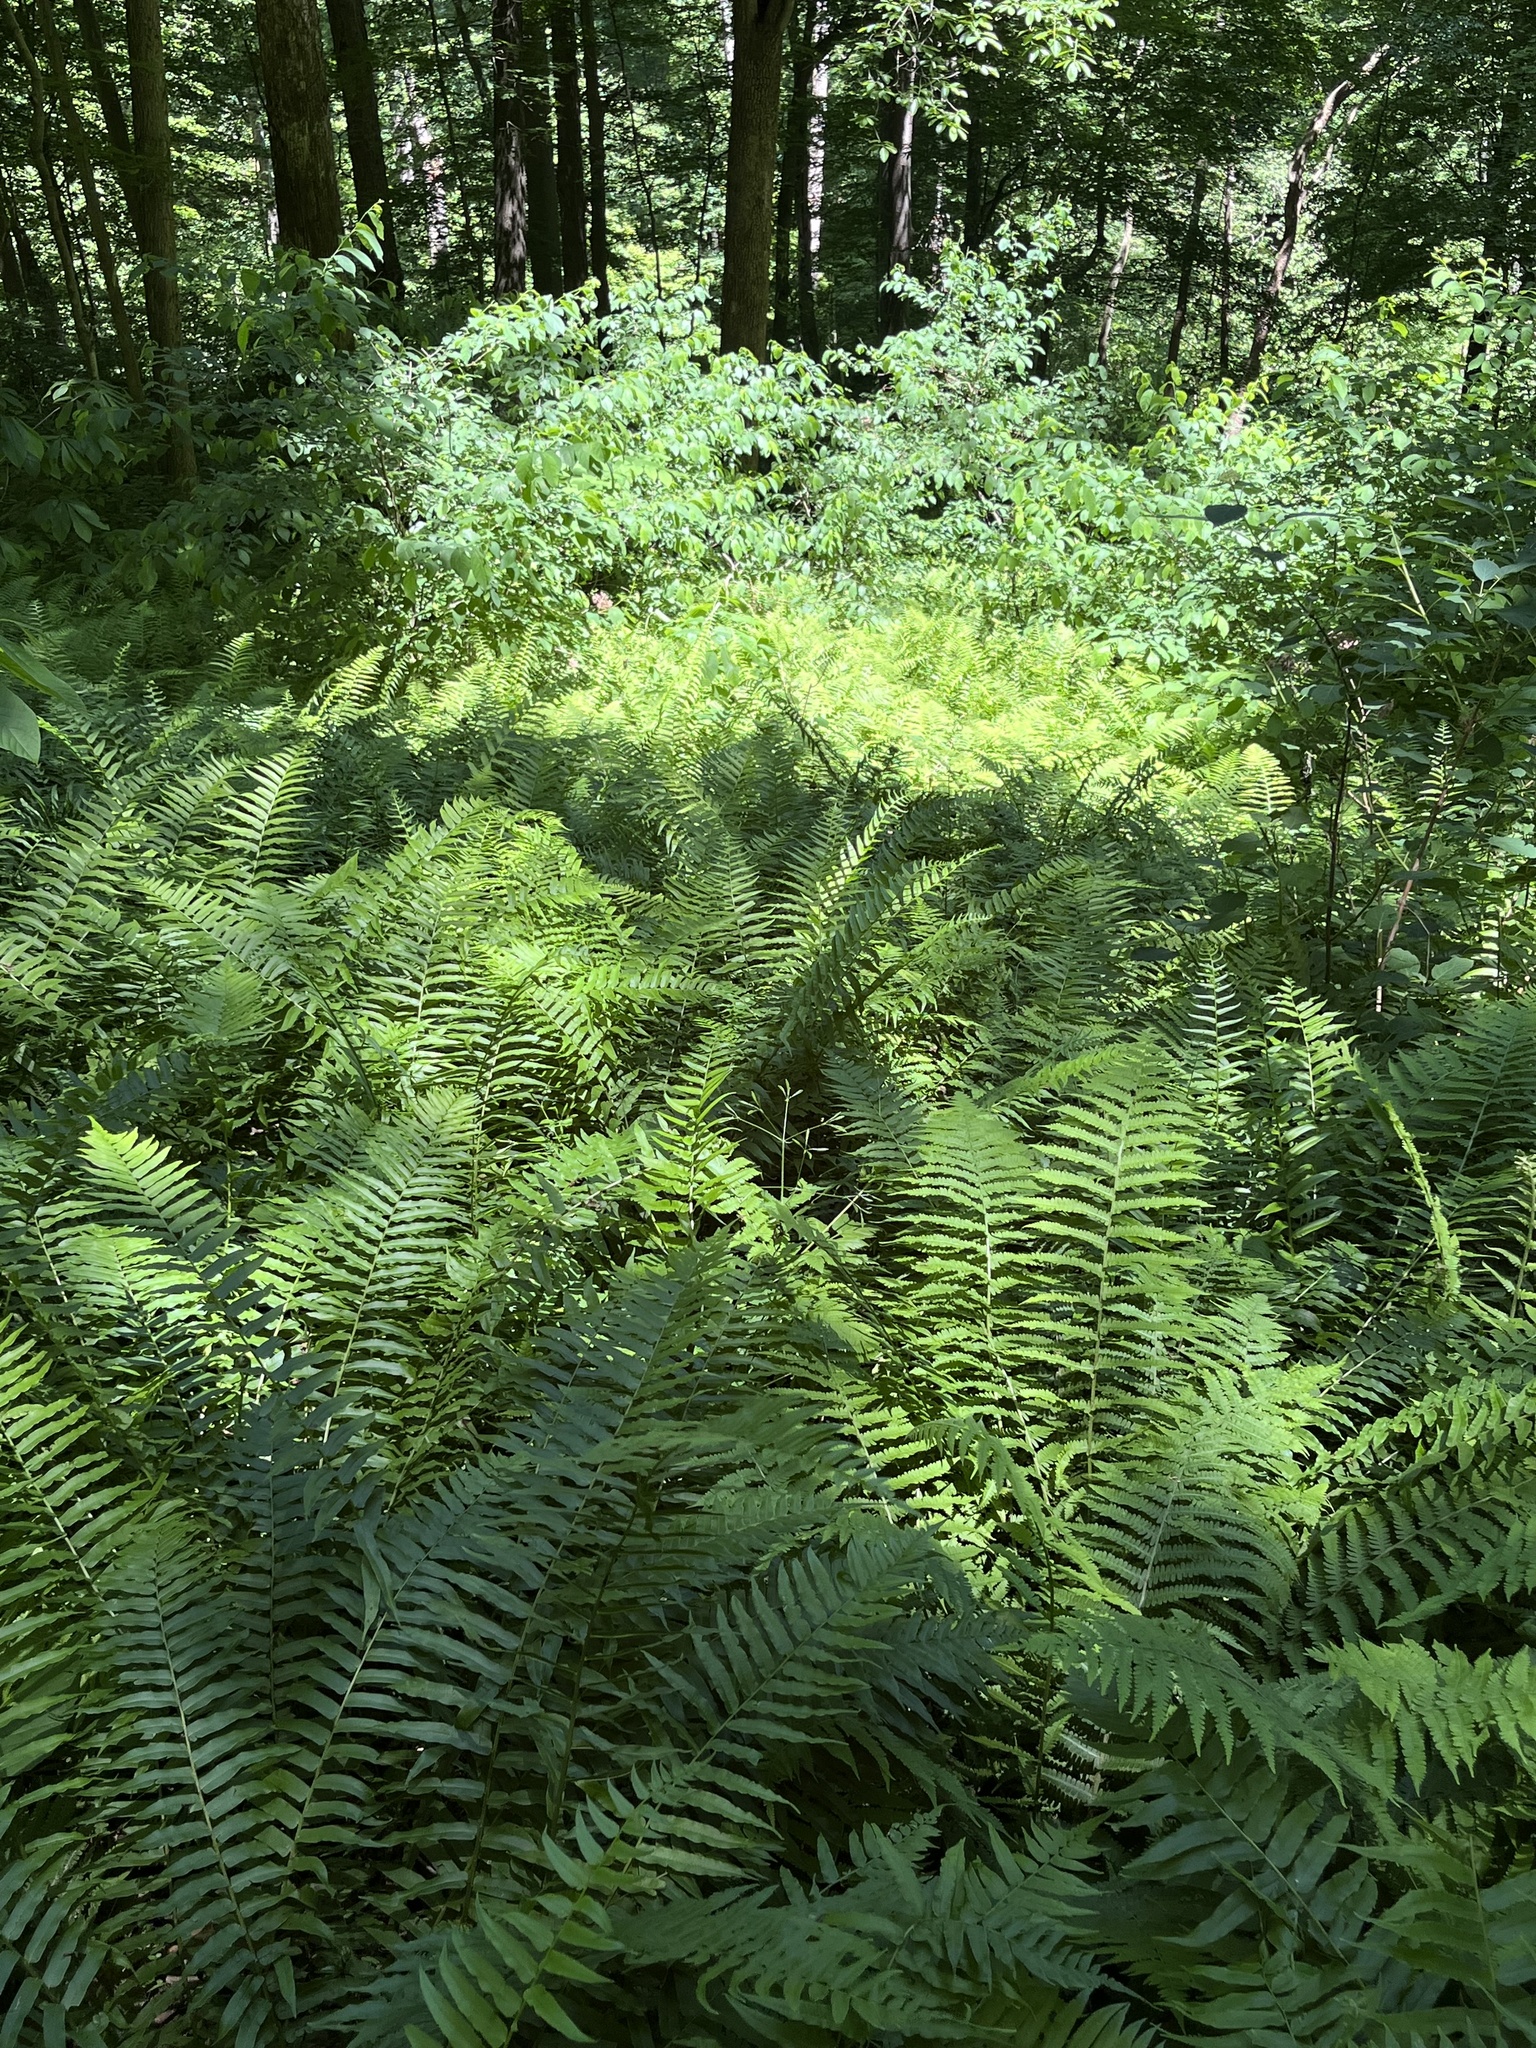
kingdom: Plantae
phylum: Tracheophyta
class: Polypodiopsida
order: Polypodiales
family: Diplaziopsidaceae
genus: Homalosorus
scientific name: Homalosorus pycnocarpos
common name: Glade fern
